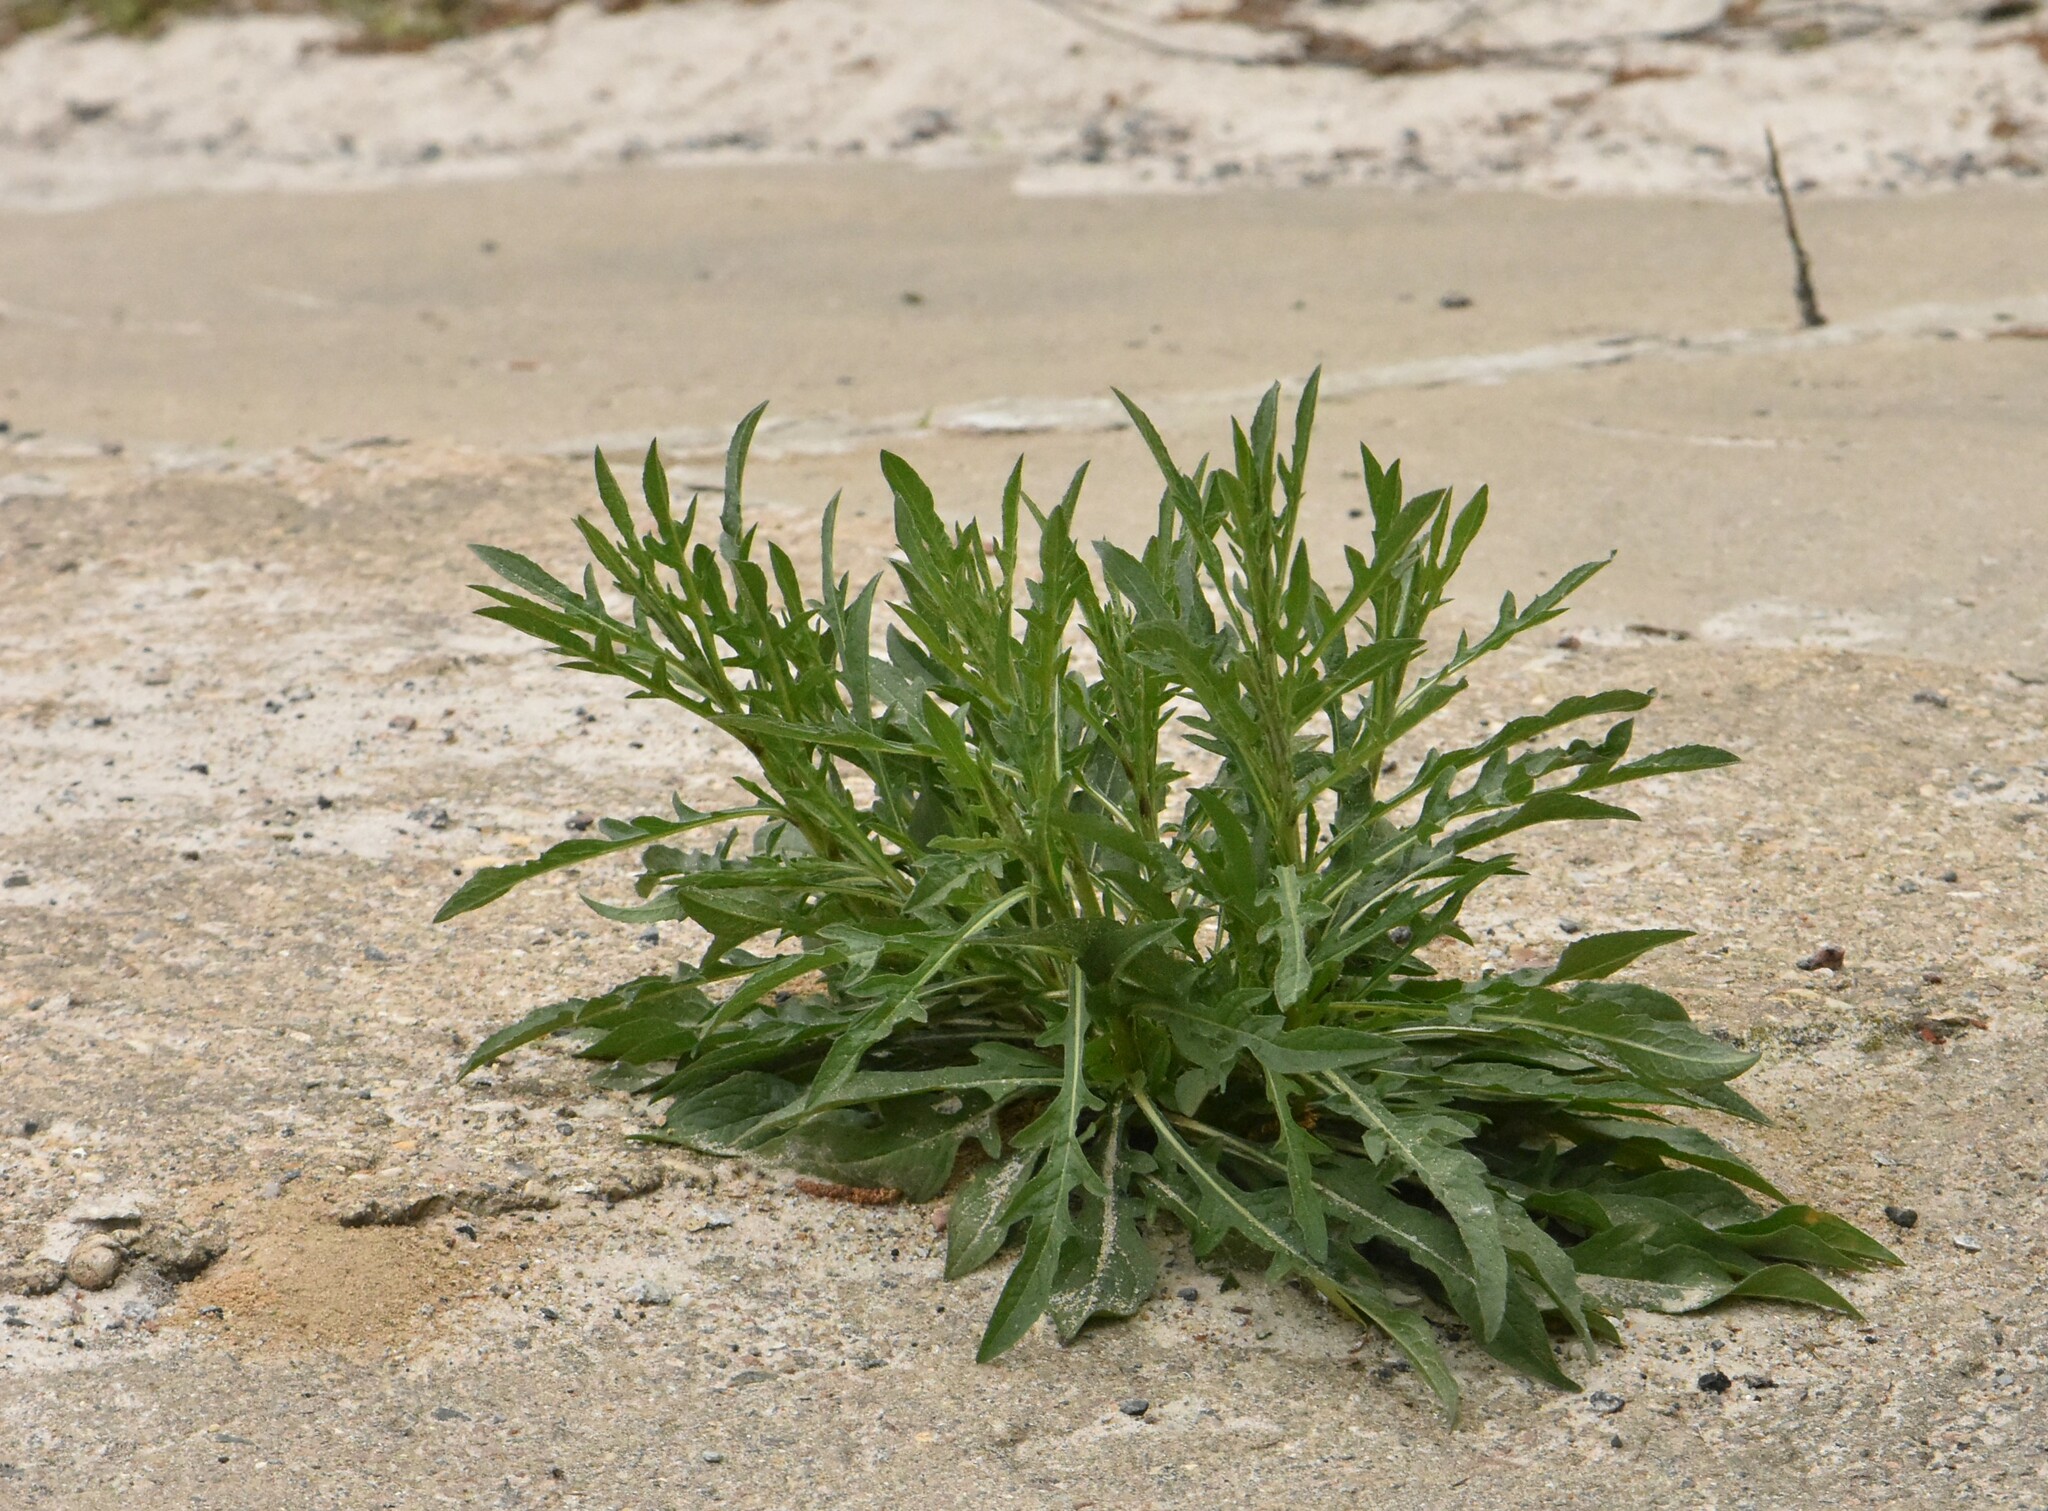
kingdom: Plantae
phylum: Tracheophyta
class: Magnoliopsida
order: Asterales
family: Asteraceae
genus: Centaurea
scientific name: Centaurea jacea
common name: Brown knapweed
